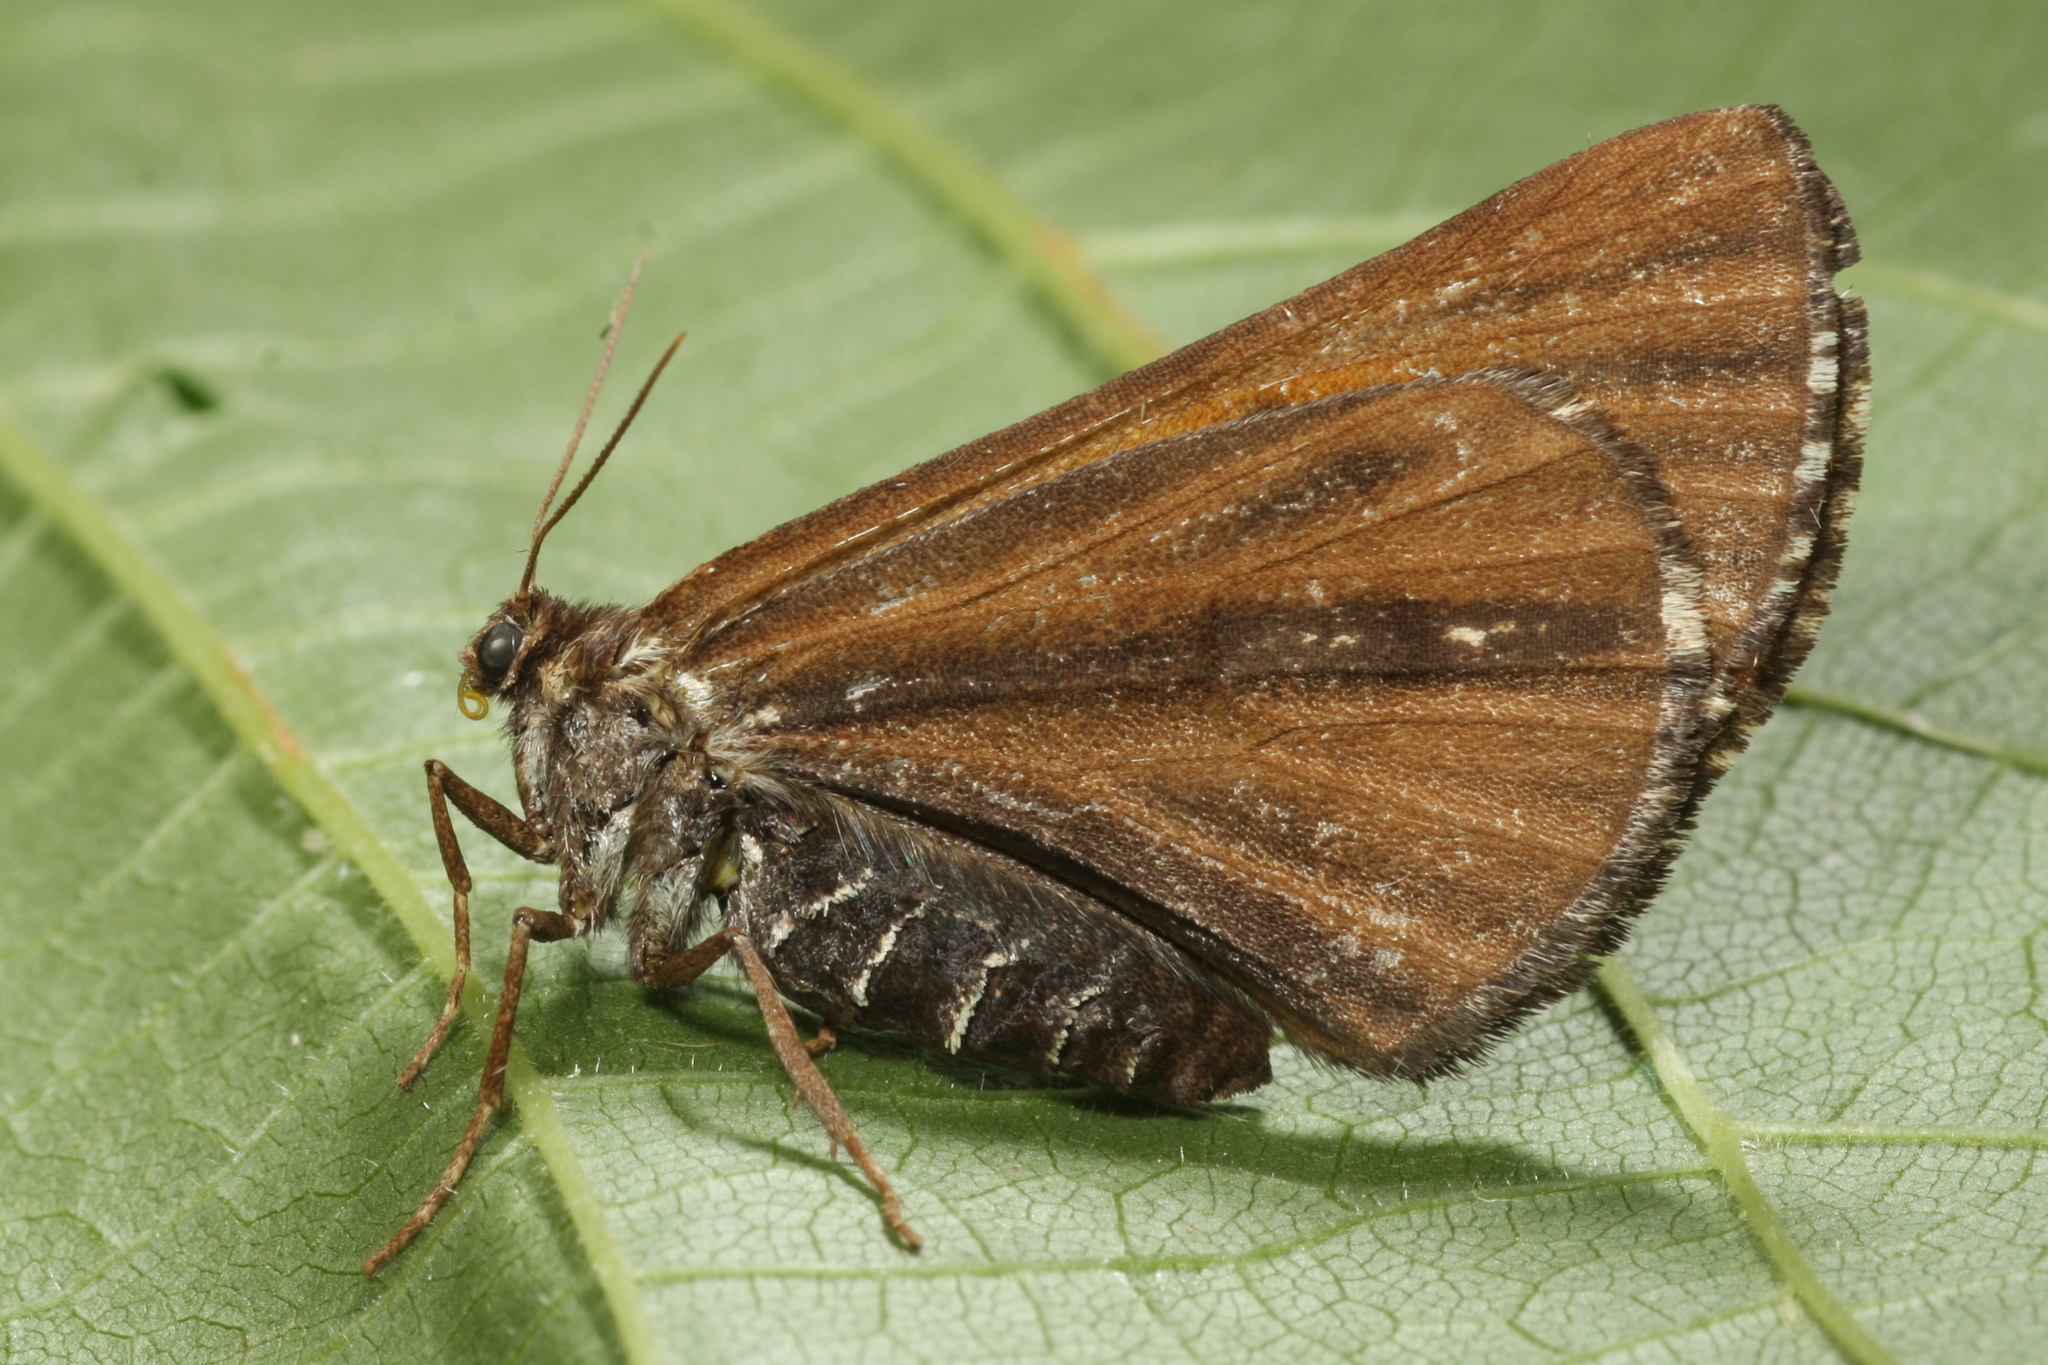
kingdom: Animalia
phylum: Arthropoda
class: Insecta
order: Lepidoptera
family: Geometridae
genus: Bupalus
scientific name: Bupalus piniaria
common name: Bordered white
